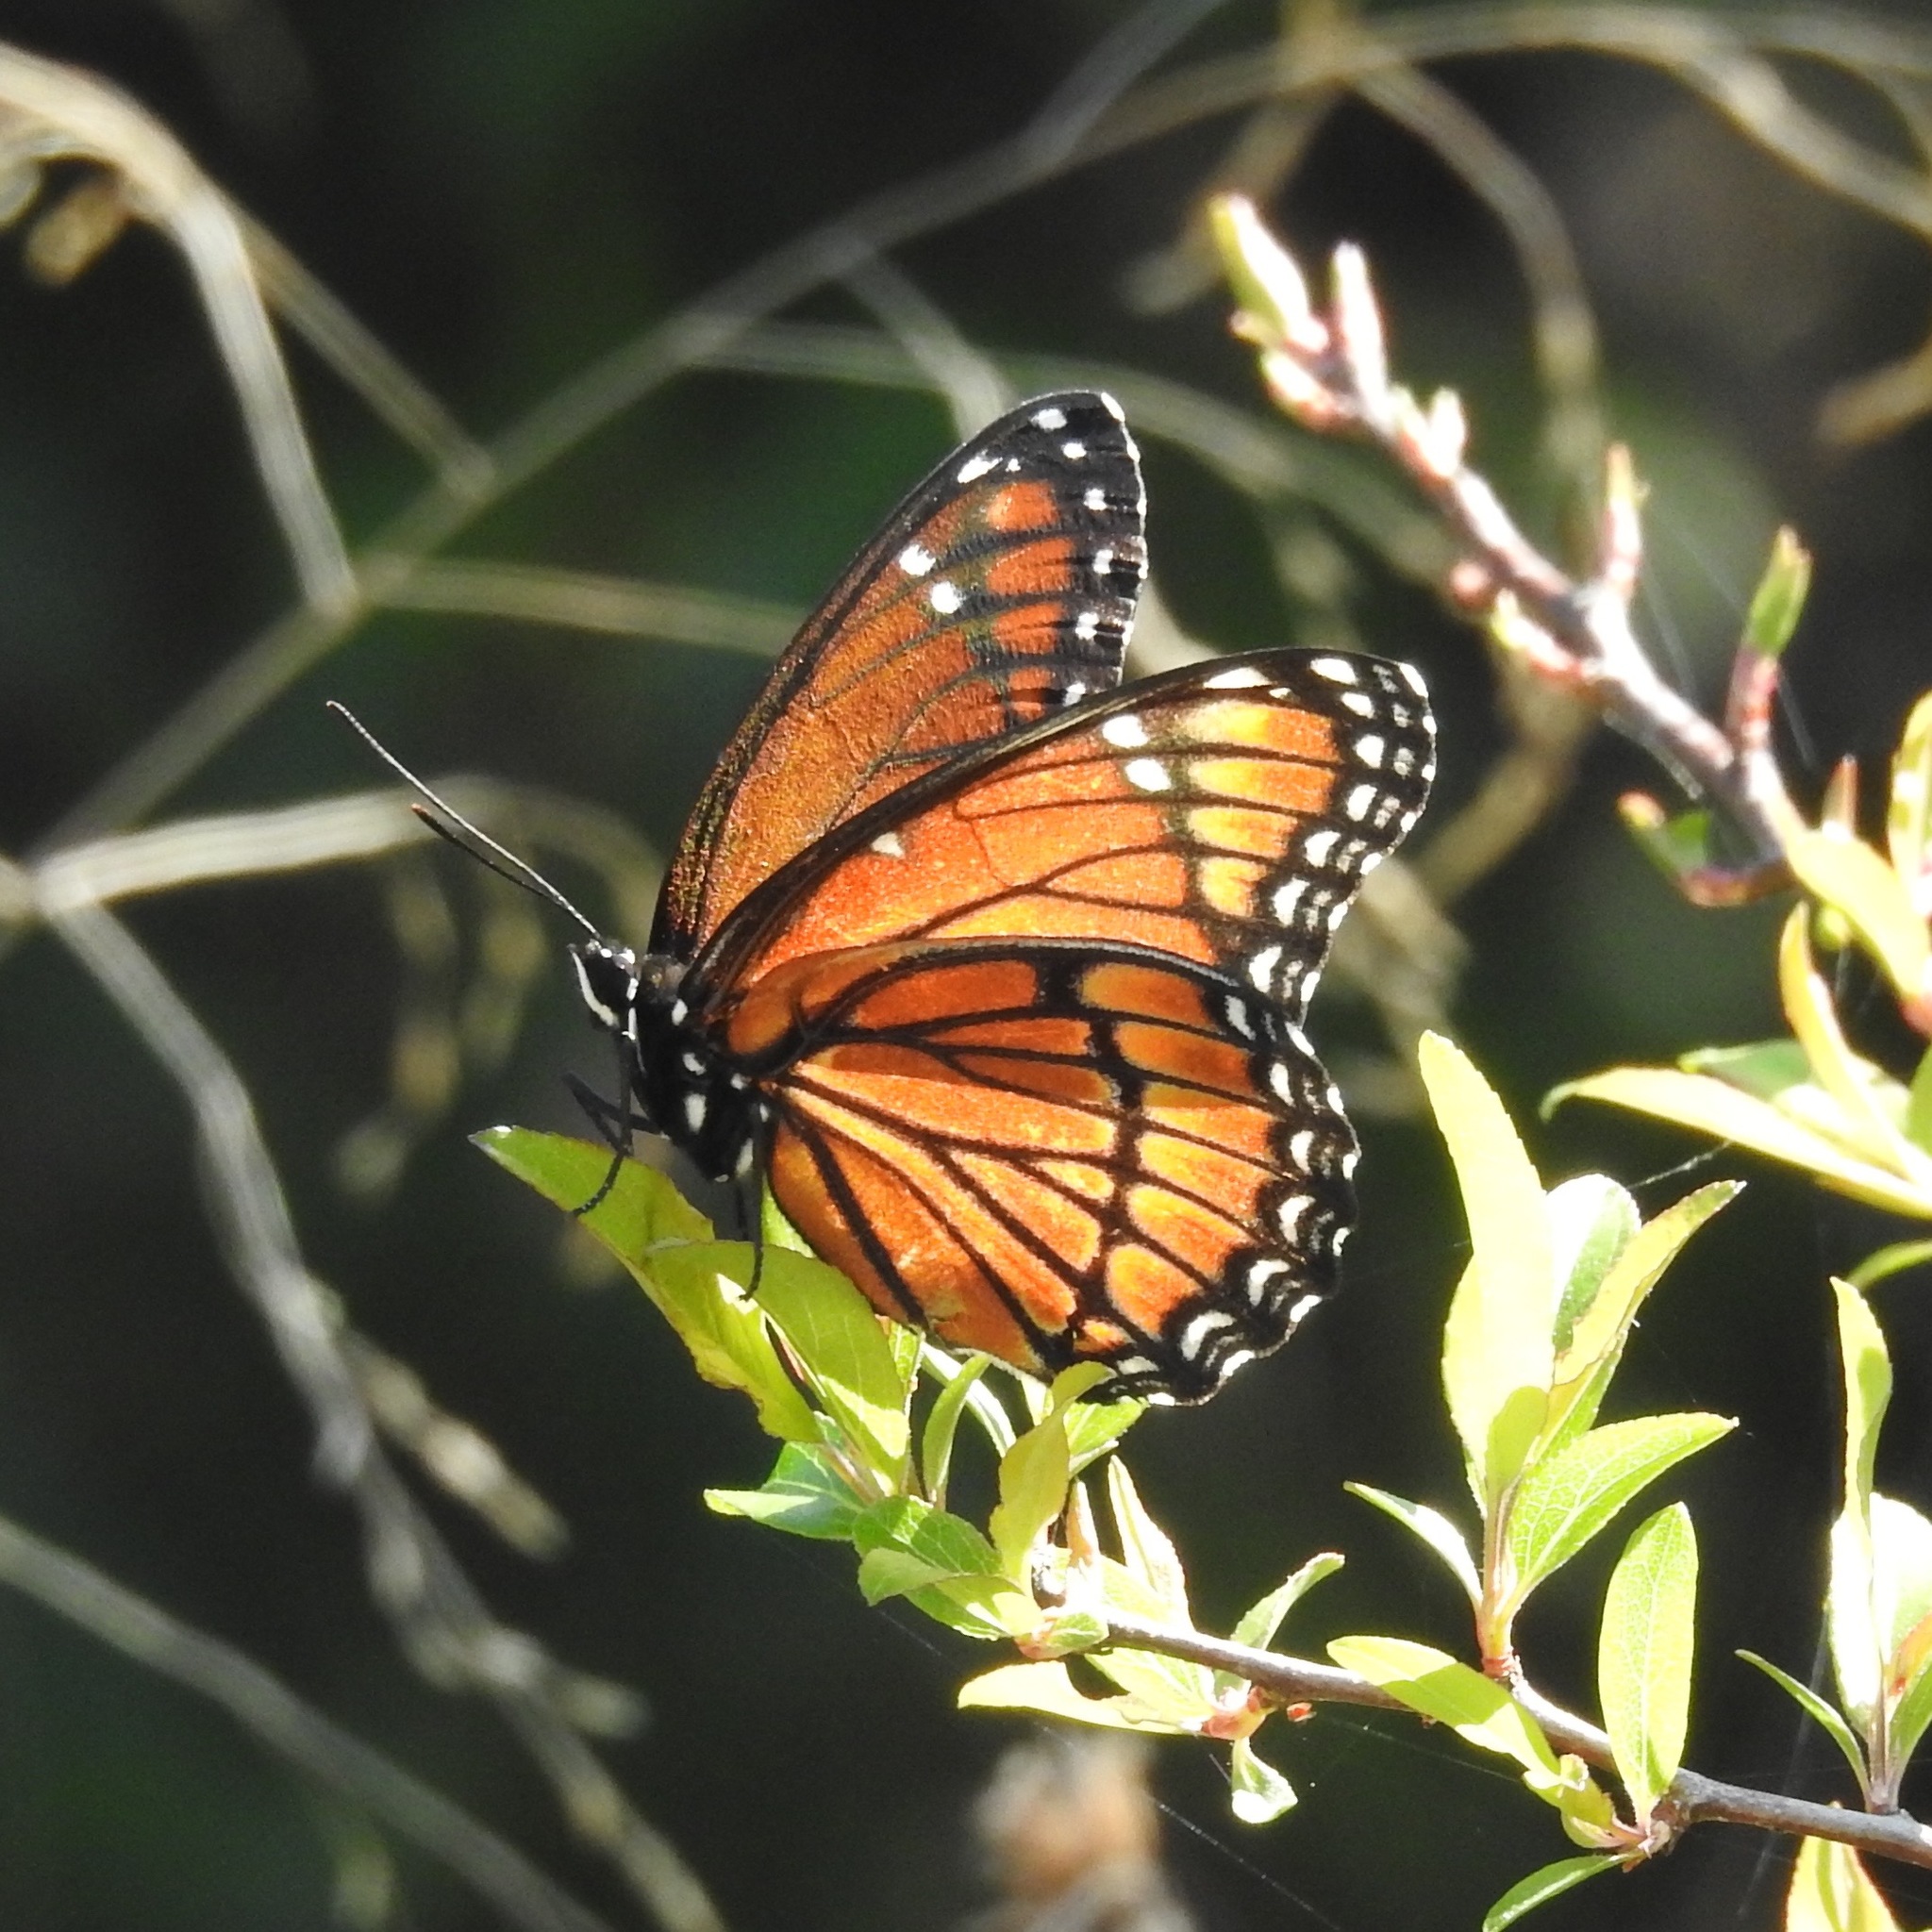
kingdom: Animalia
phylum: Arthropoda
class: Insecta
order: Lepidoptera
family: Nymphalidae
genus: Limenitis
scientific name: Limenitis archippus
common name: Viceroy
